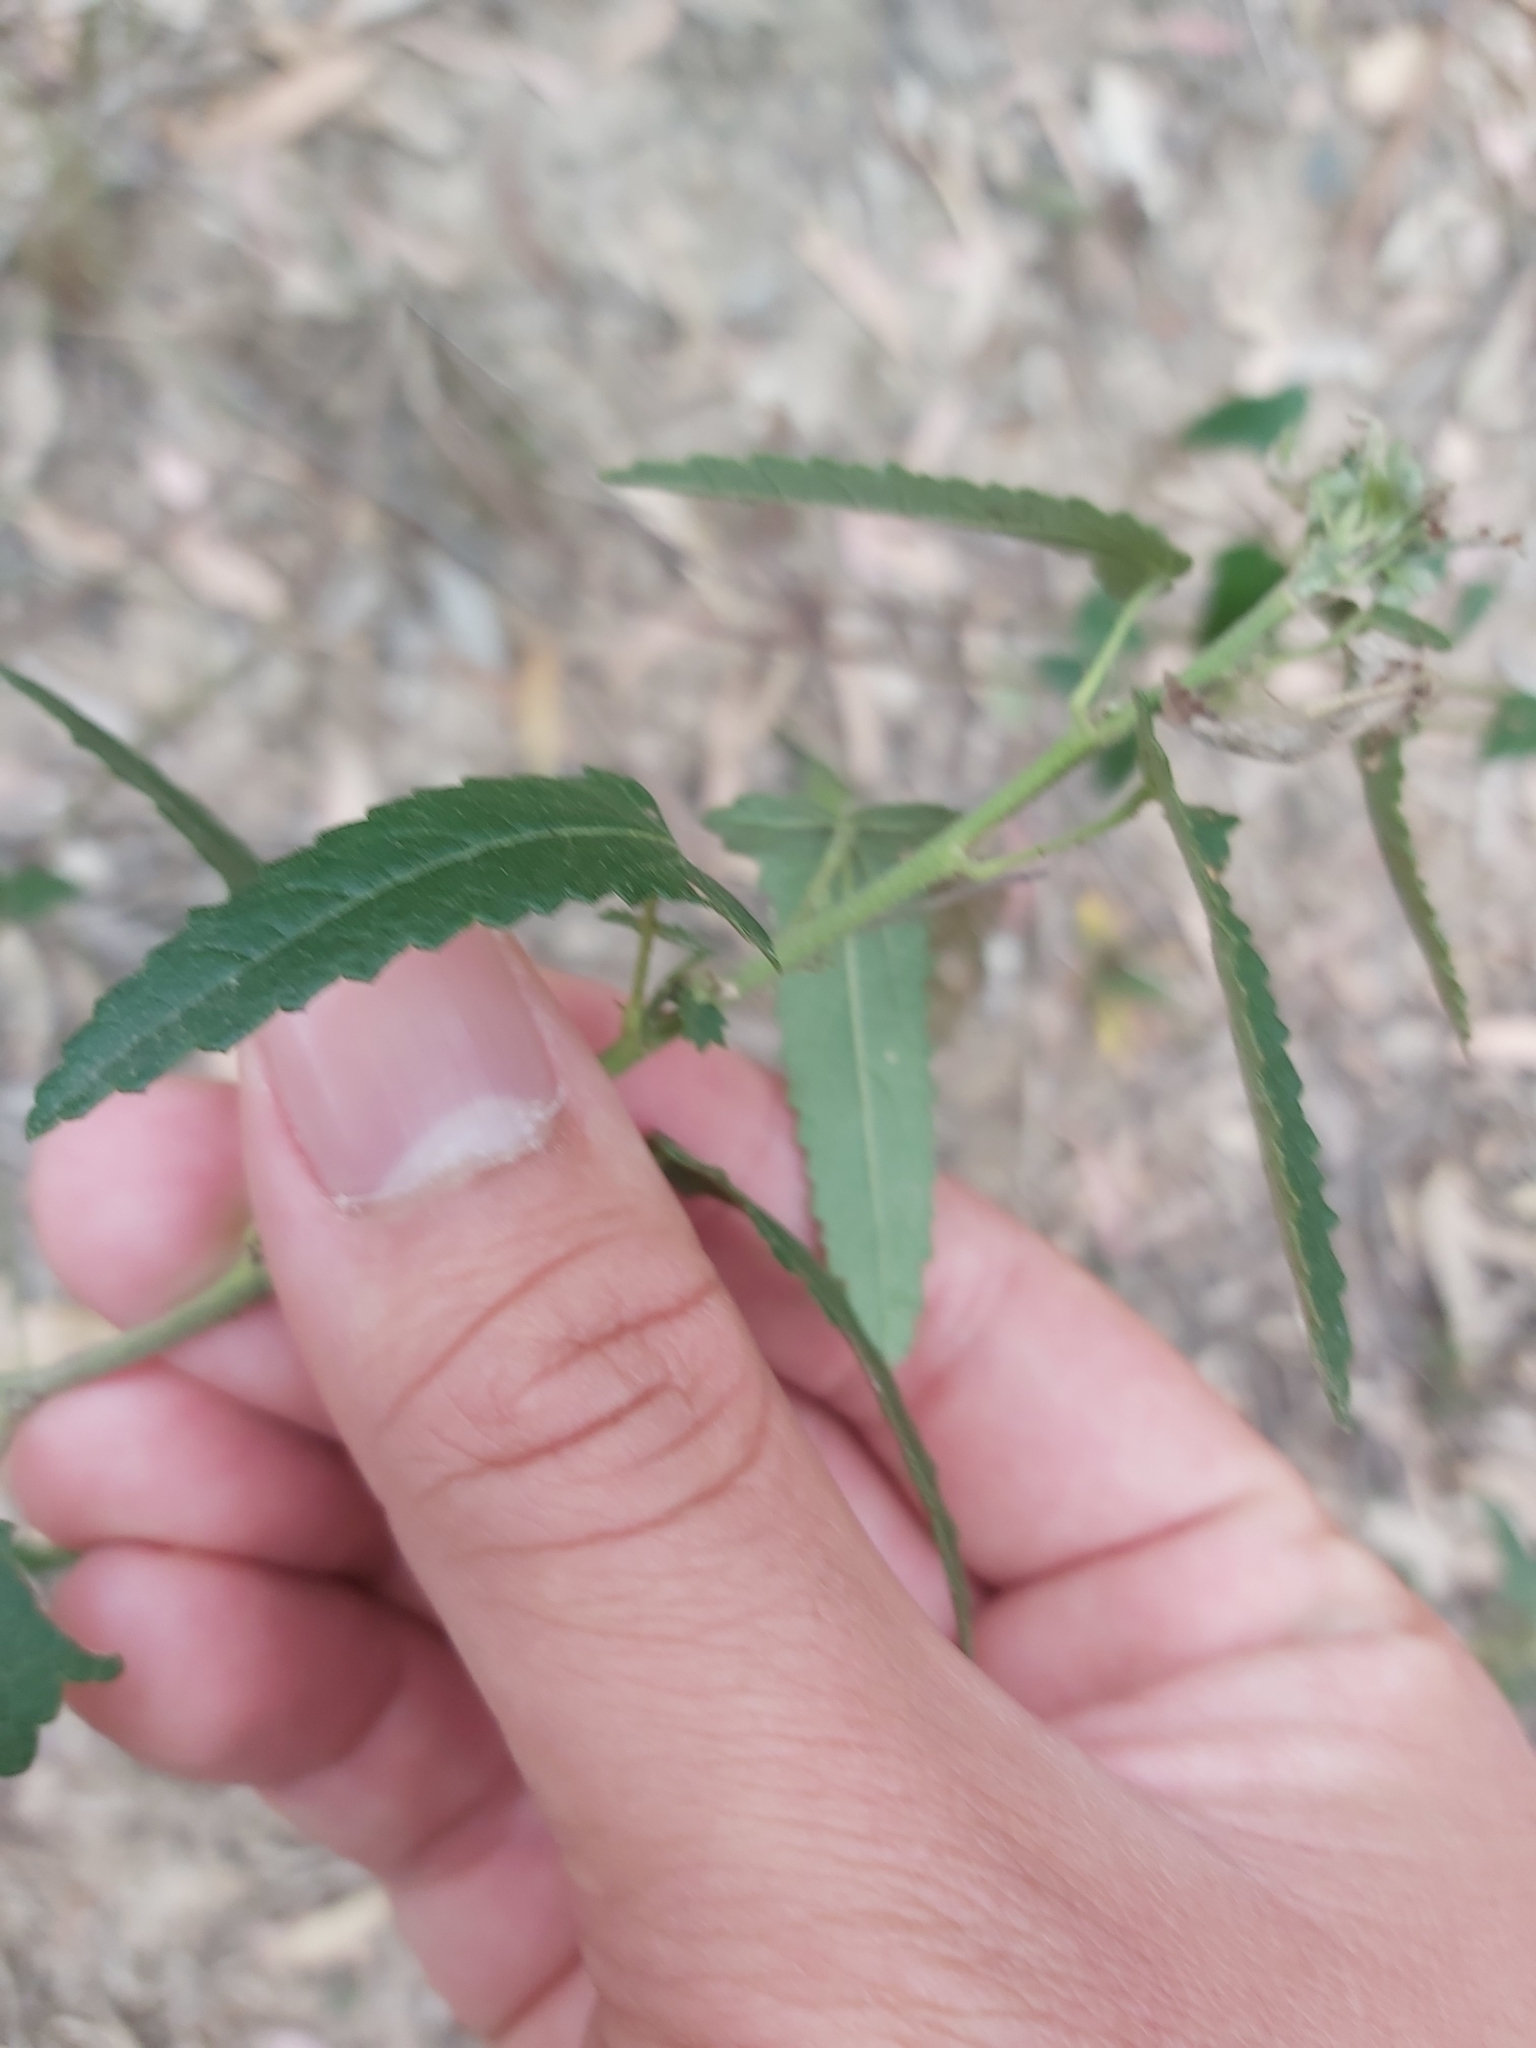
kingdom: Plantae
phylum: Tracheophyta
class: Magnoliopsida
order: Malvales
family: Malvaceae
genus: Pavonia
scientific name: Pavonia hastata
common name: Spearleaf swampmallow
